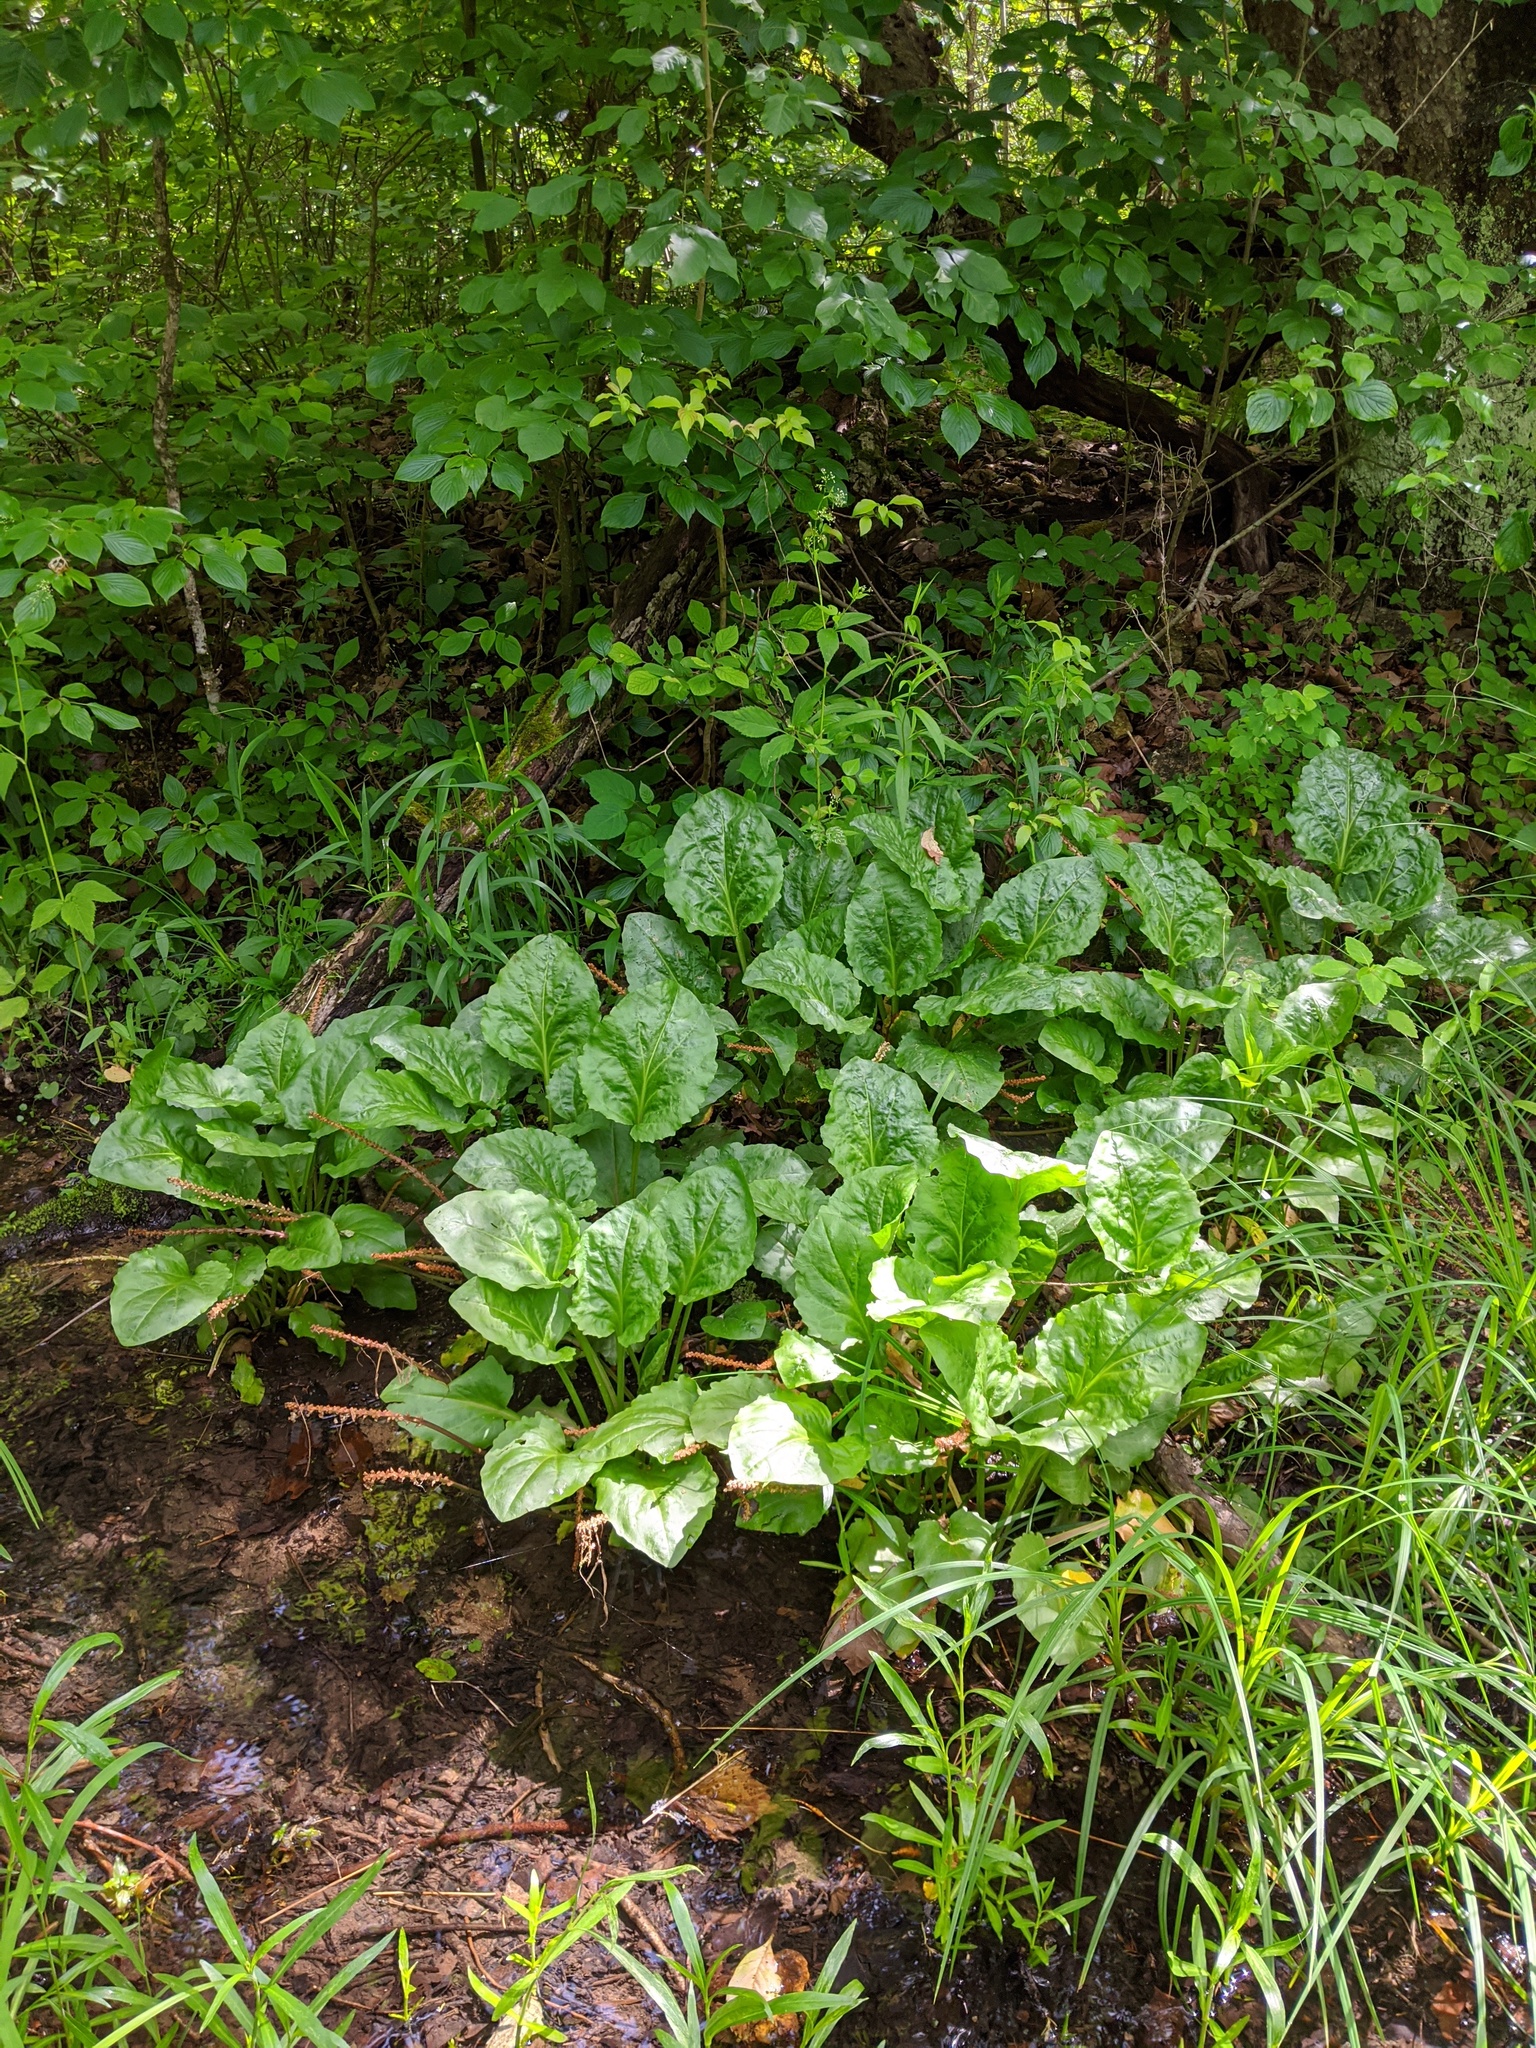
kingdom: Plantae
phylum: Tracheophyta
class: Magnoliopsida
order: Lamiales
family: Plantaginaceae
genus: Plantago
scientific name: Plantago cordata
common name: Kingroot
